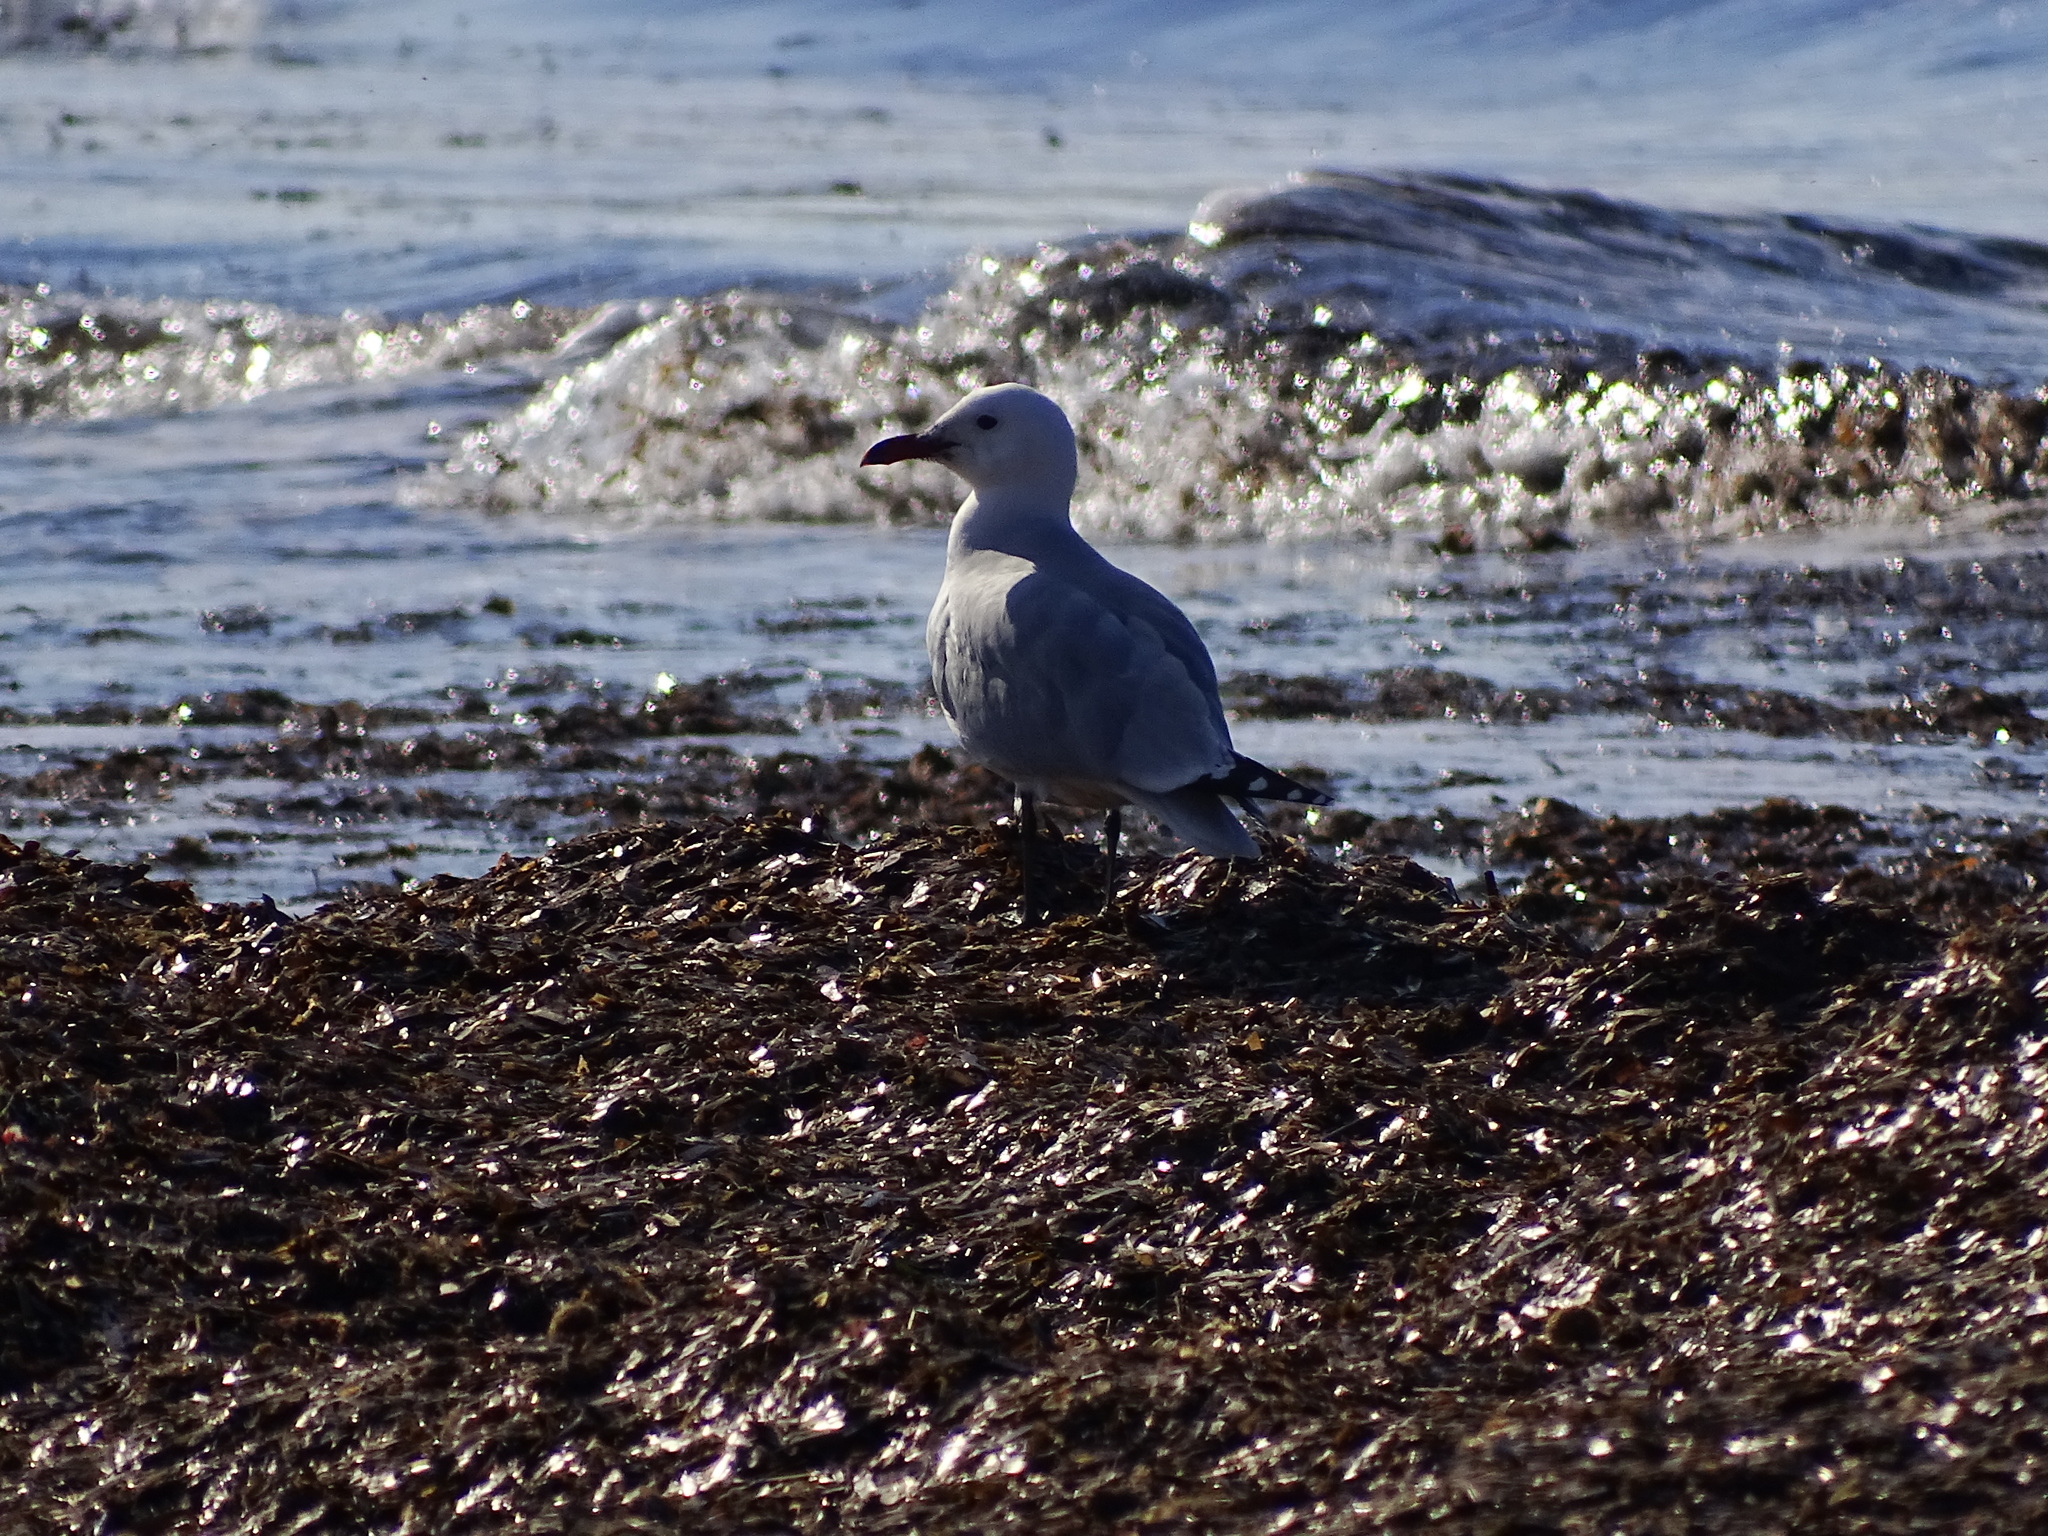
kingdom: Animalia
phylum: Chordata
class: Aves
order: Charadriiformes
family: Laridae
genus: Ichthyaetus
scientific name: Ichthyaetus audouinii
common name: Audouin's gull
